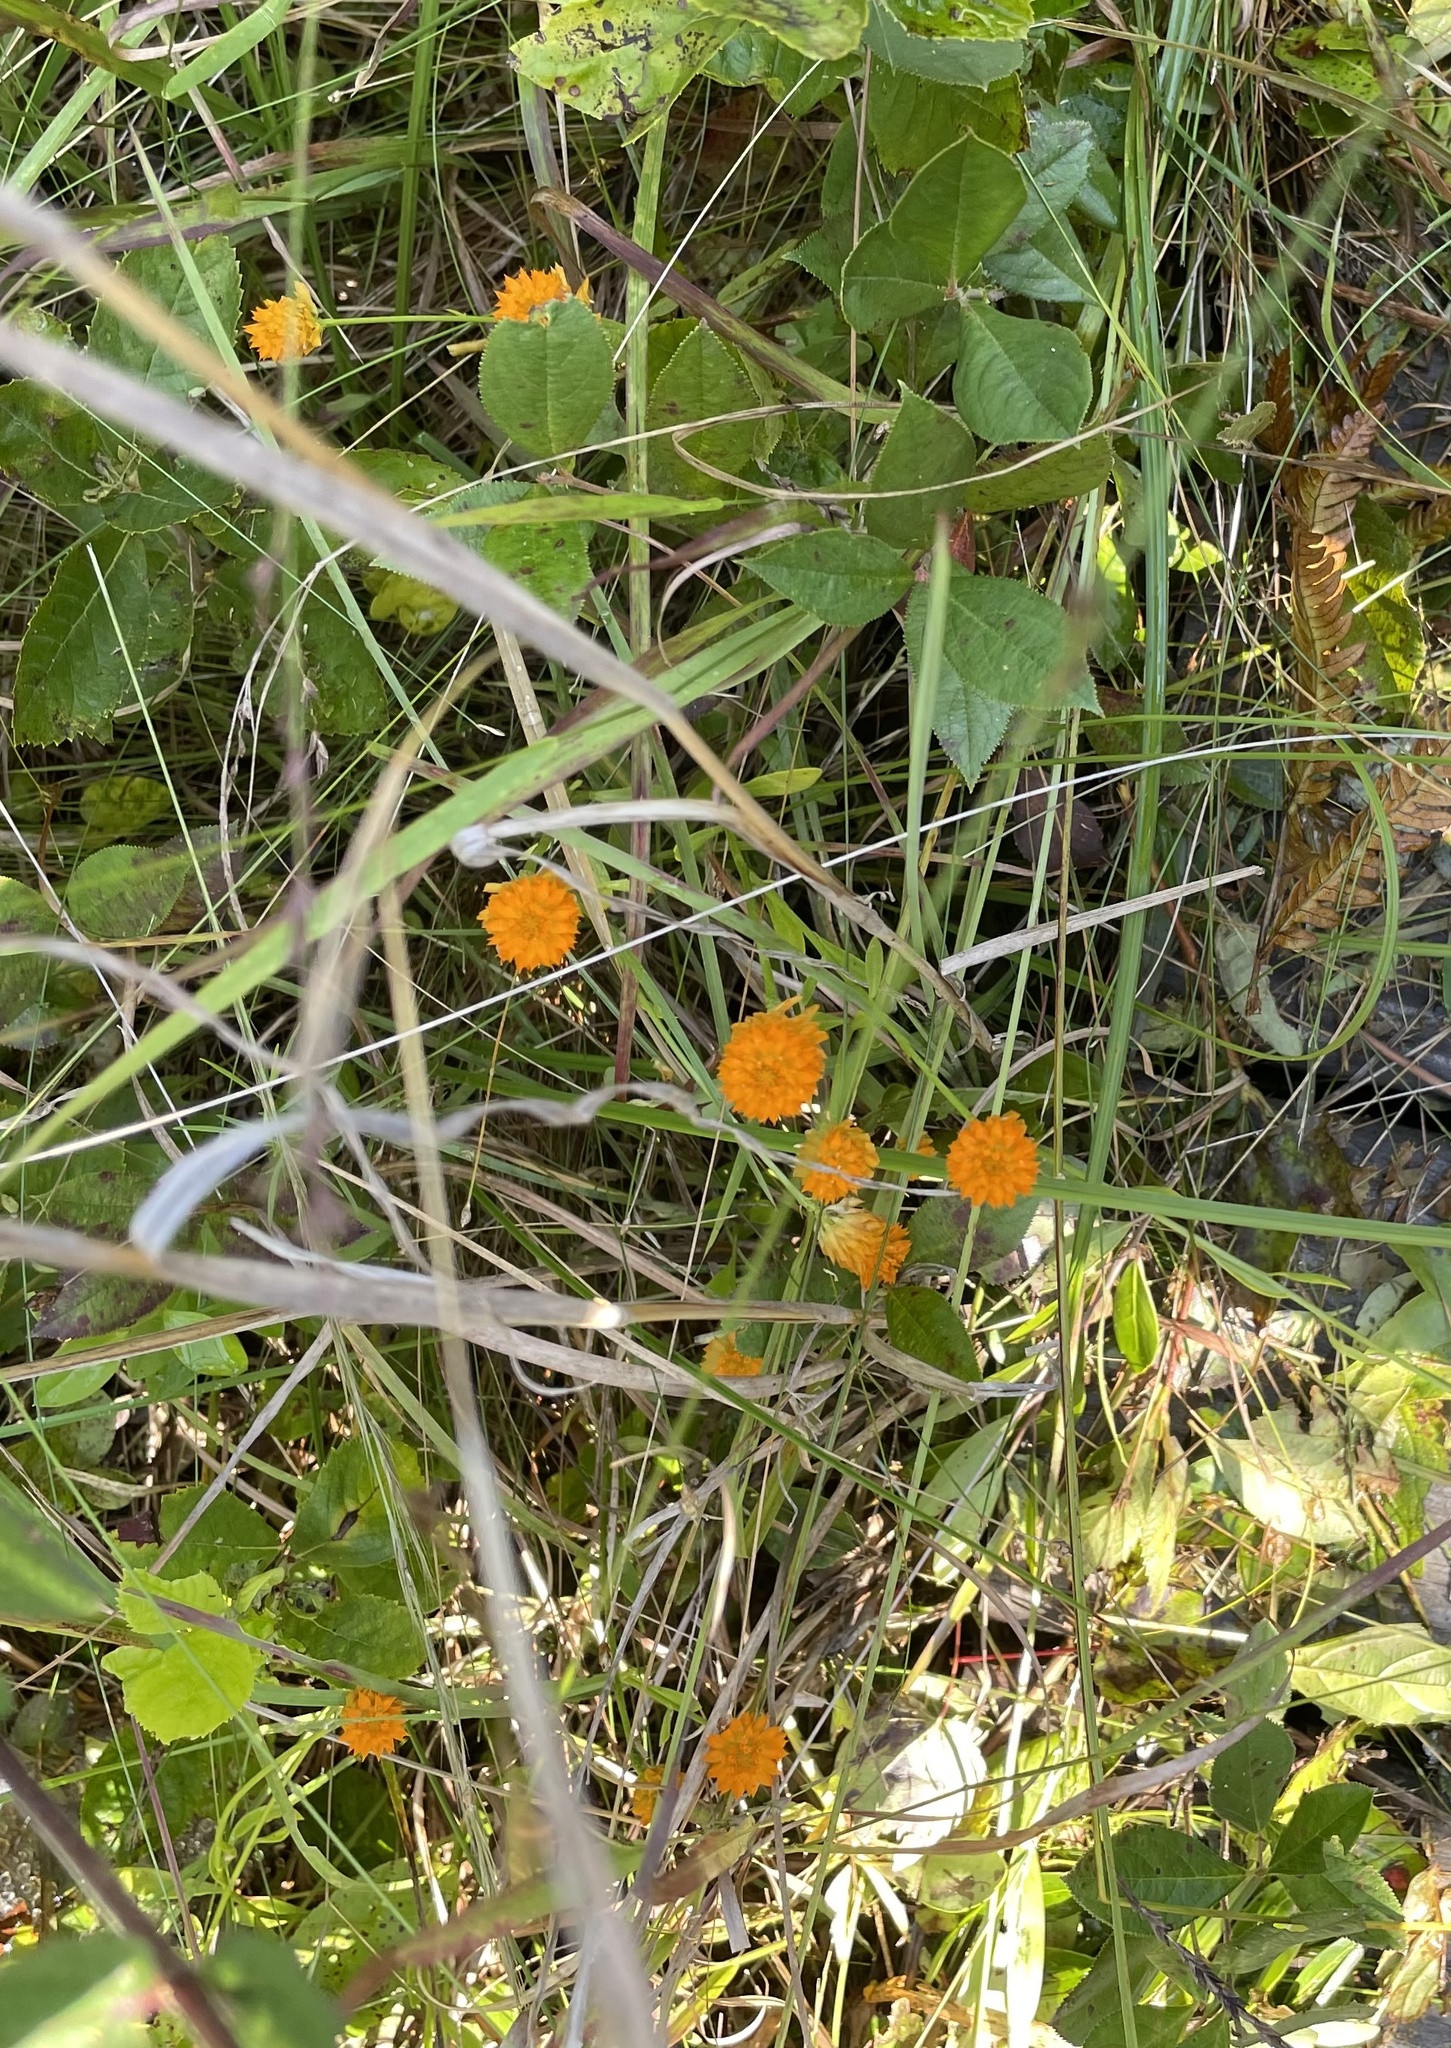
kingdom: Plantae
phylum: Tracheophyta
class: Magnoliopsida
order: Fabales
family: Polygalaceae
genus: Polygala
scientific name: Polygala lutea
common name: Orange milkwort
